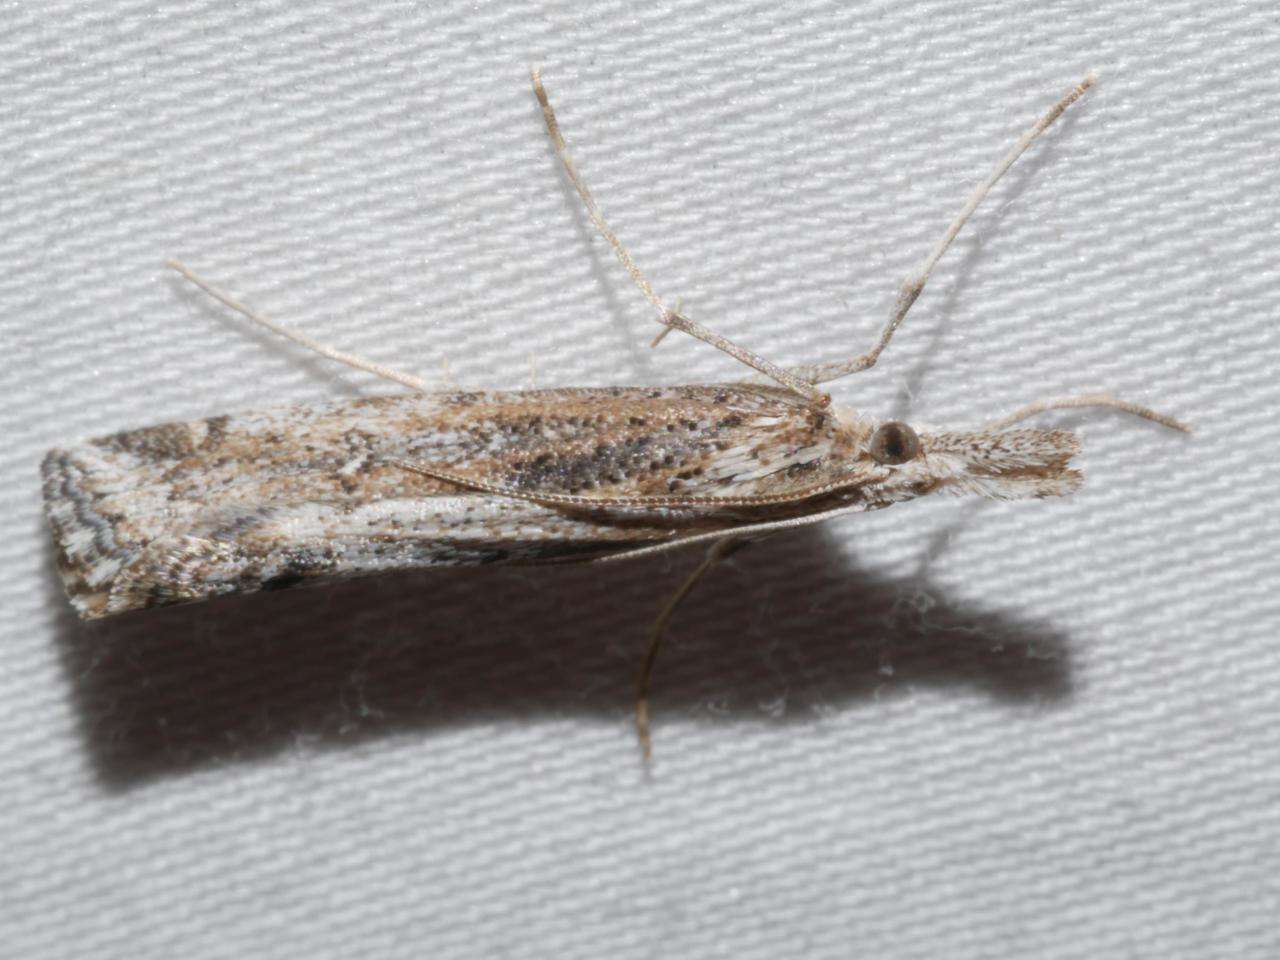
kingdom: Animalia
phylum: Arthropoda
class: Insecta
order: Lepidoptera
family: Crambidae
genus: Hednota
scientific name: Hednota crypsichroa
